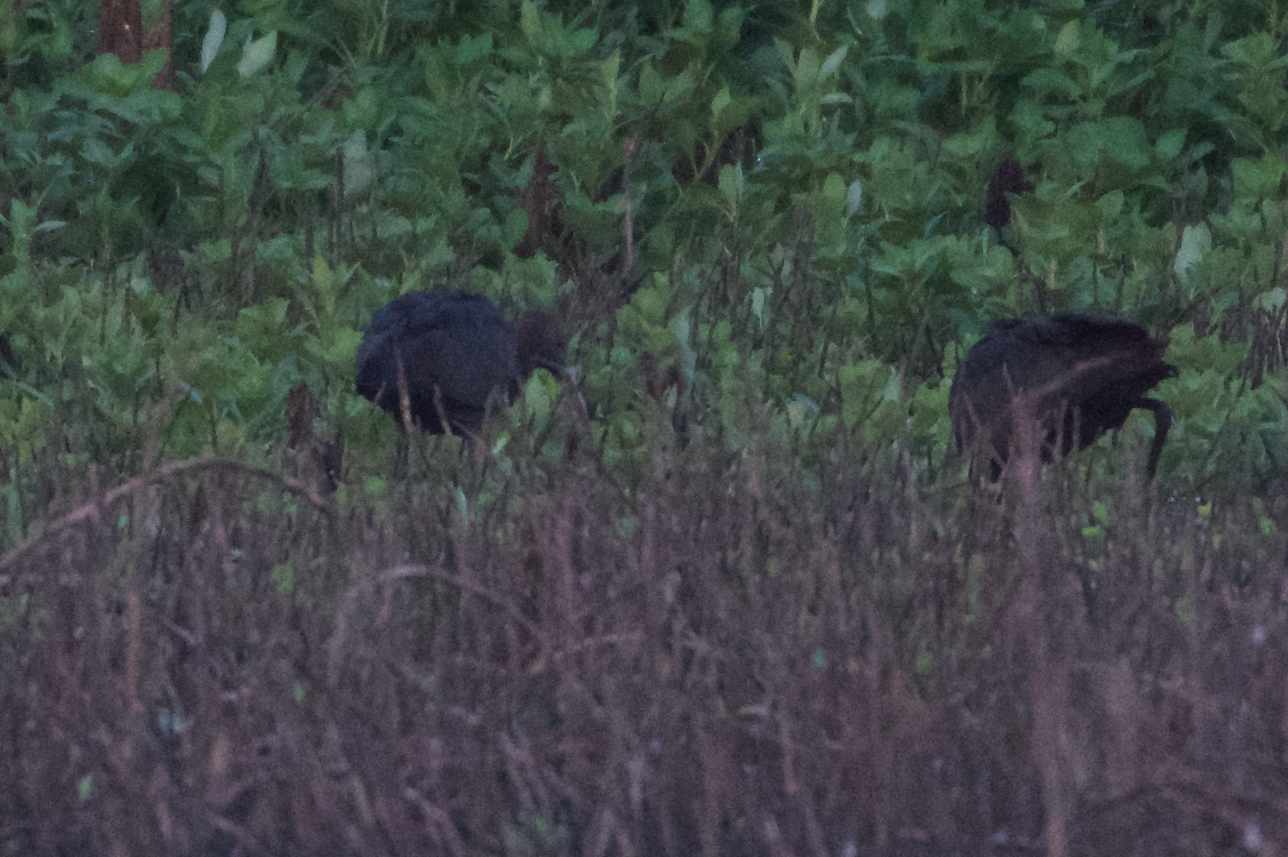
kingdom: Animalia
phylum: Chordata
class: Aves
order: Pelecaniformes
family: Threskiornithidae
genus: Plegadis
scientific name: Plegadis chihi
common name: White-faced ibis
